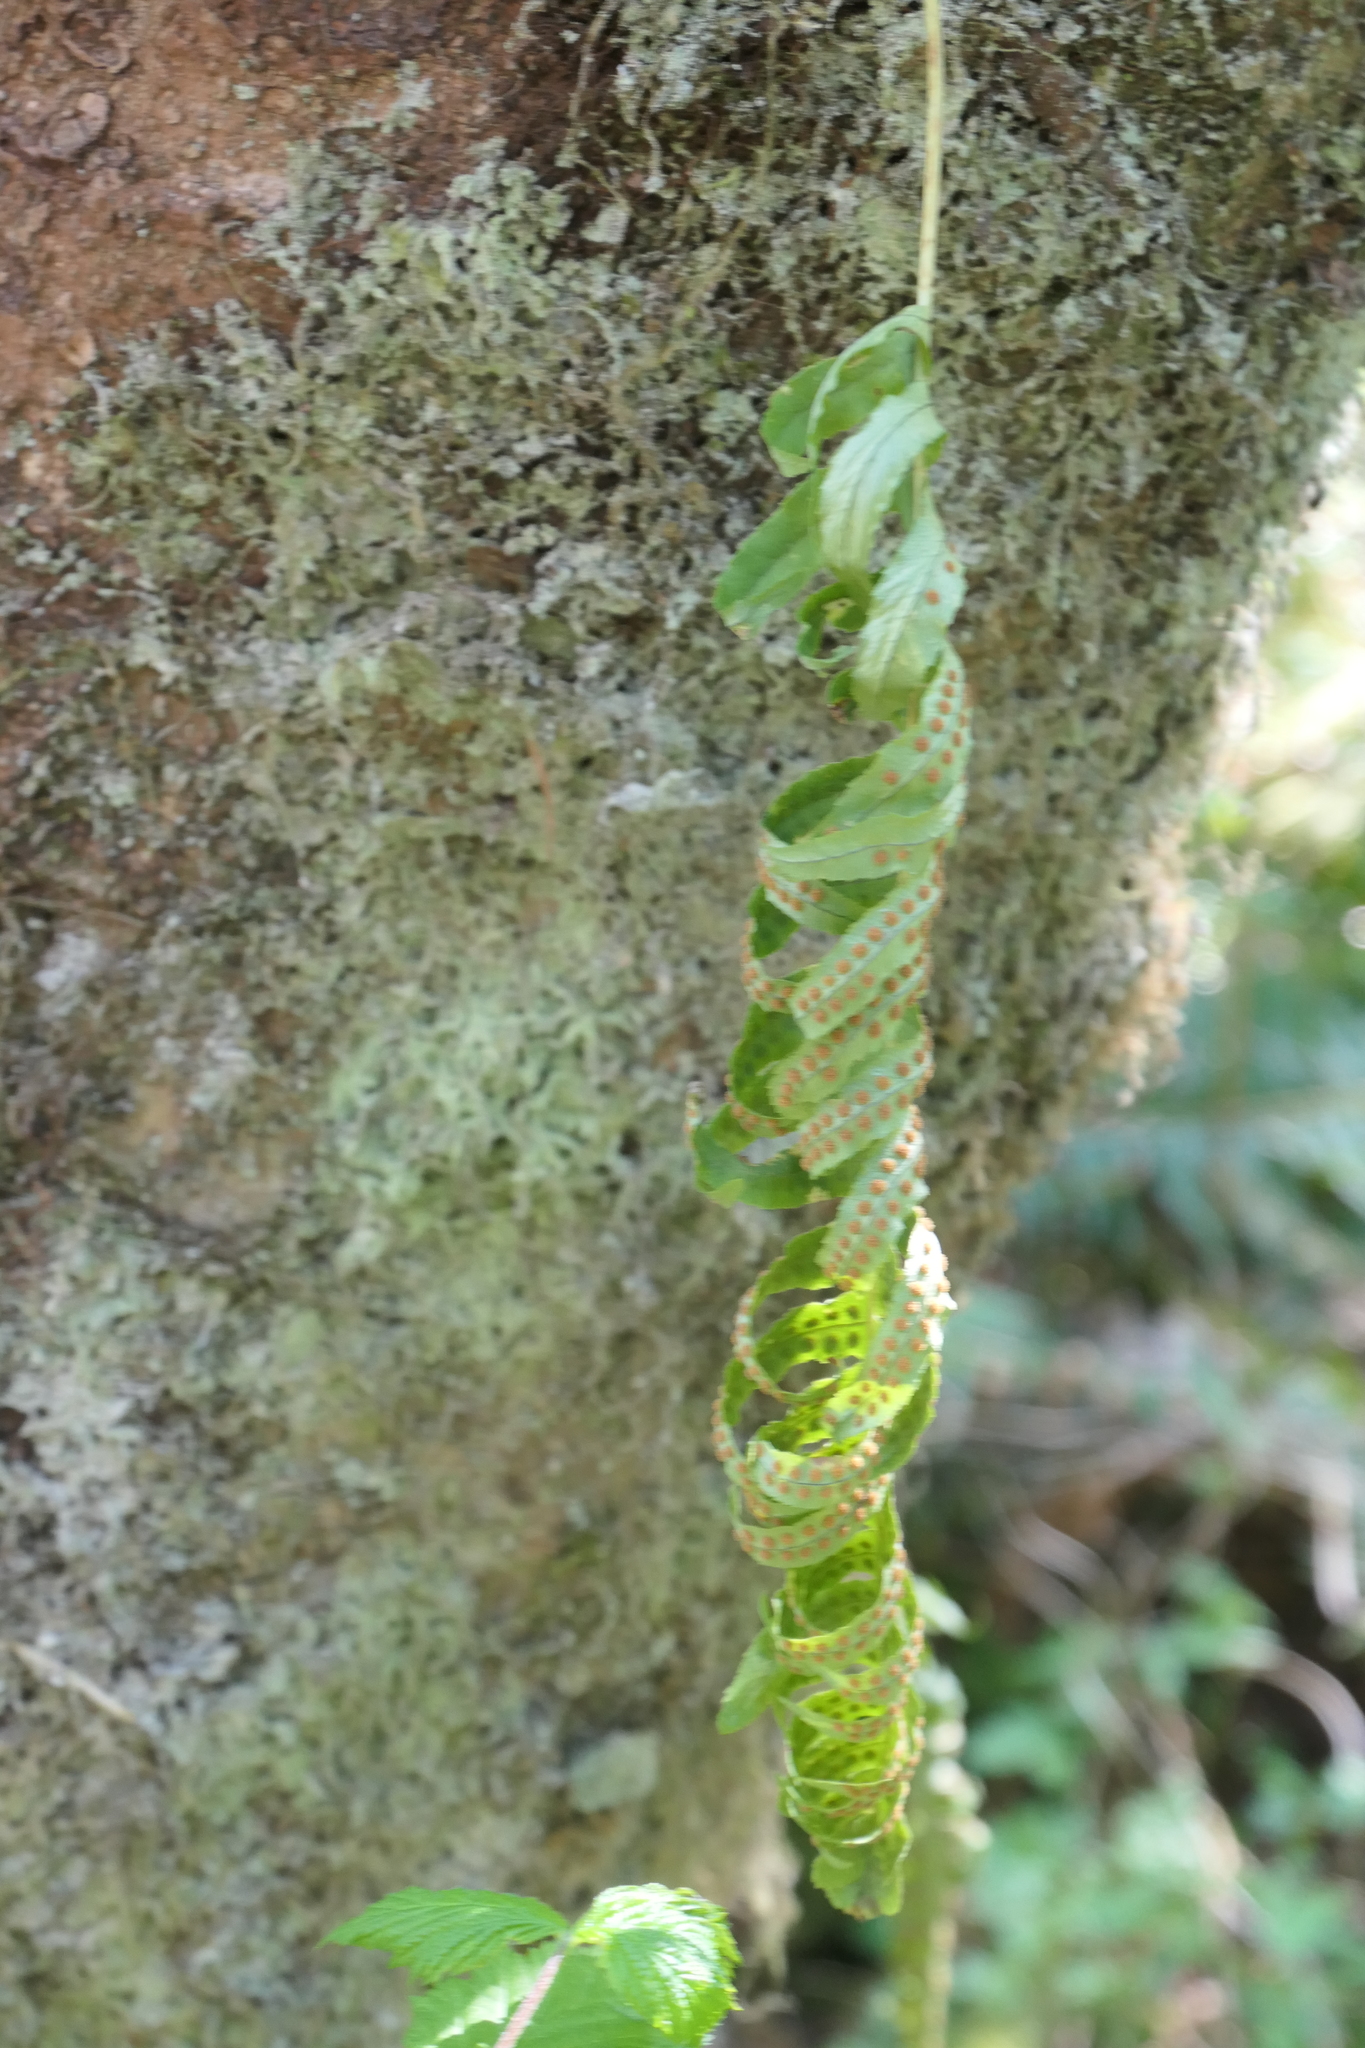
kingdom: Plantae
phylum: Tracheophyta
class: Polypodiopsida
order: Polypodiales
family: Polypodiaceae
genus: Polypodium
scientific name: Polypodium glycyrrhiza
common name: Licorice fern
